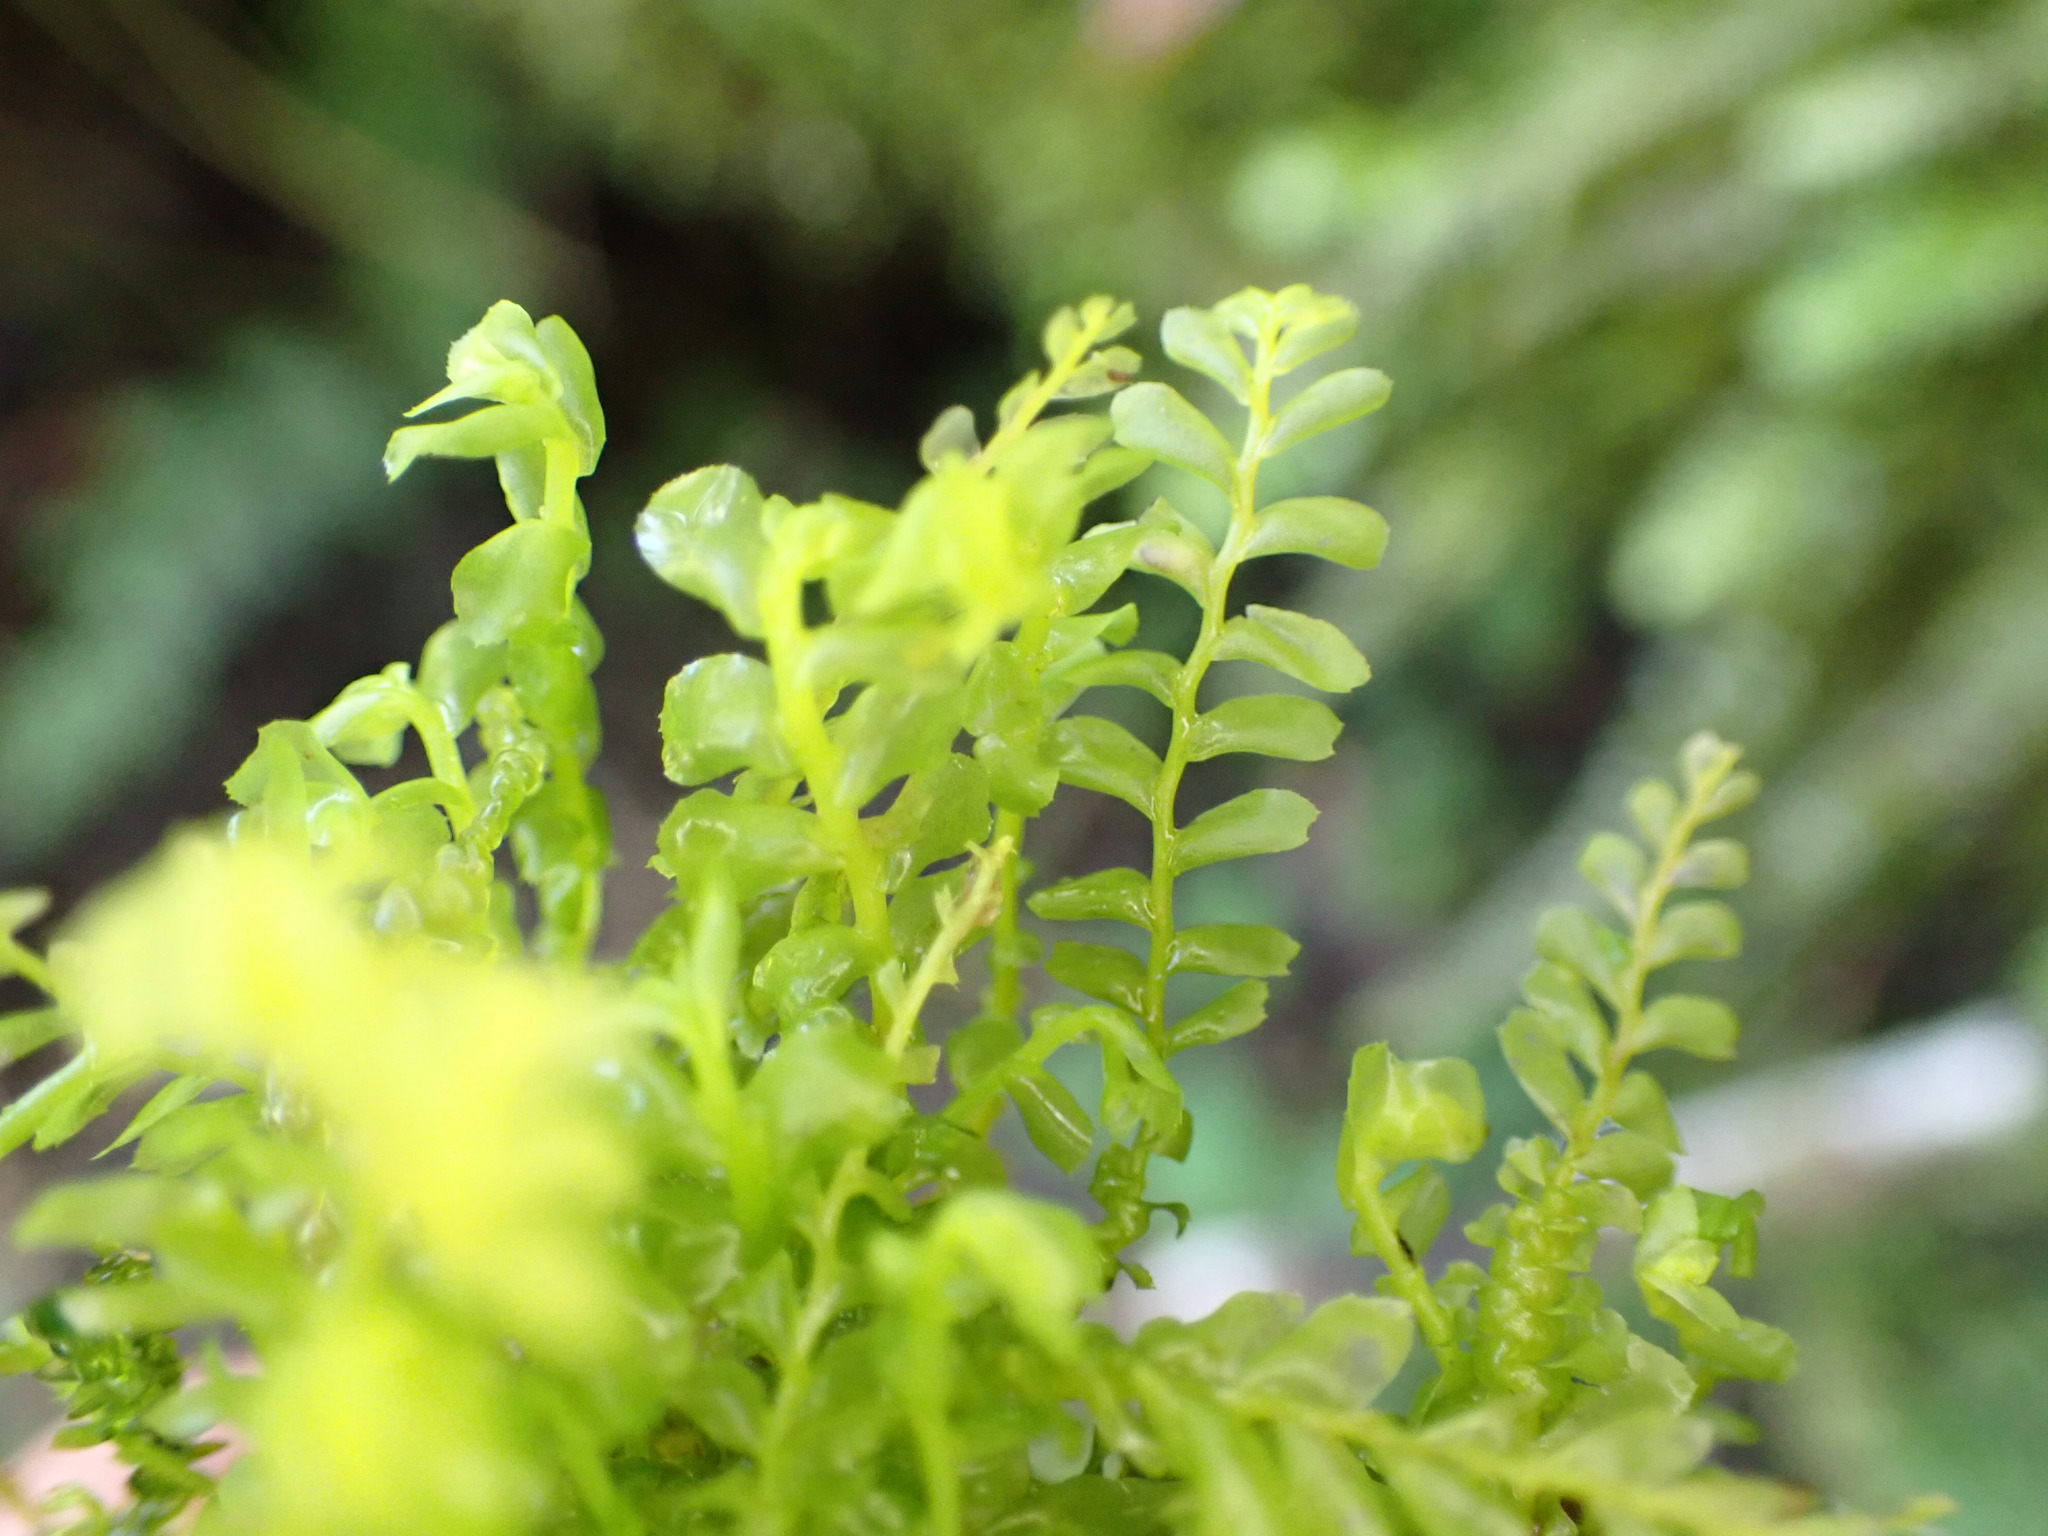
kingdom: Plantae
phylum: Marchantiophyta
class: Jungermanniopsida
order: Jungermanniales
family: Acrobolbaceae
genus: Acrobolbus
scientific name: Acrobolbus plagiochiloides
